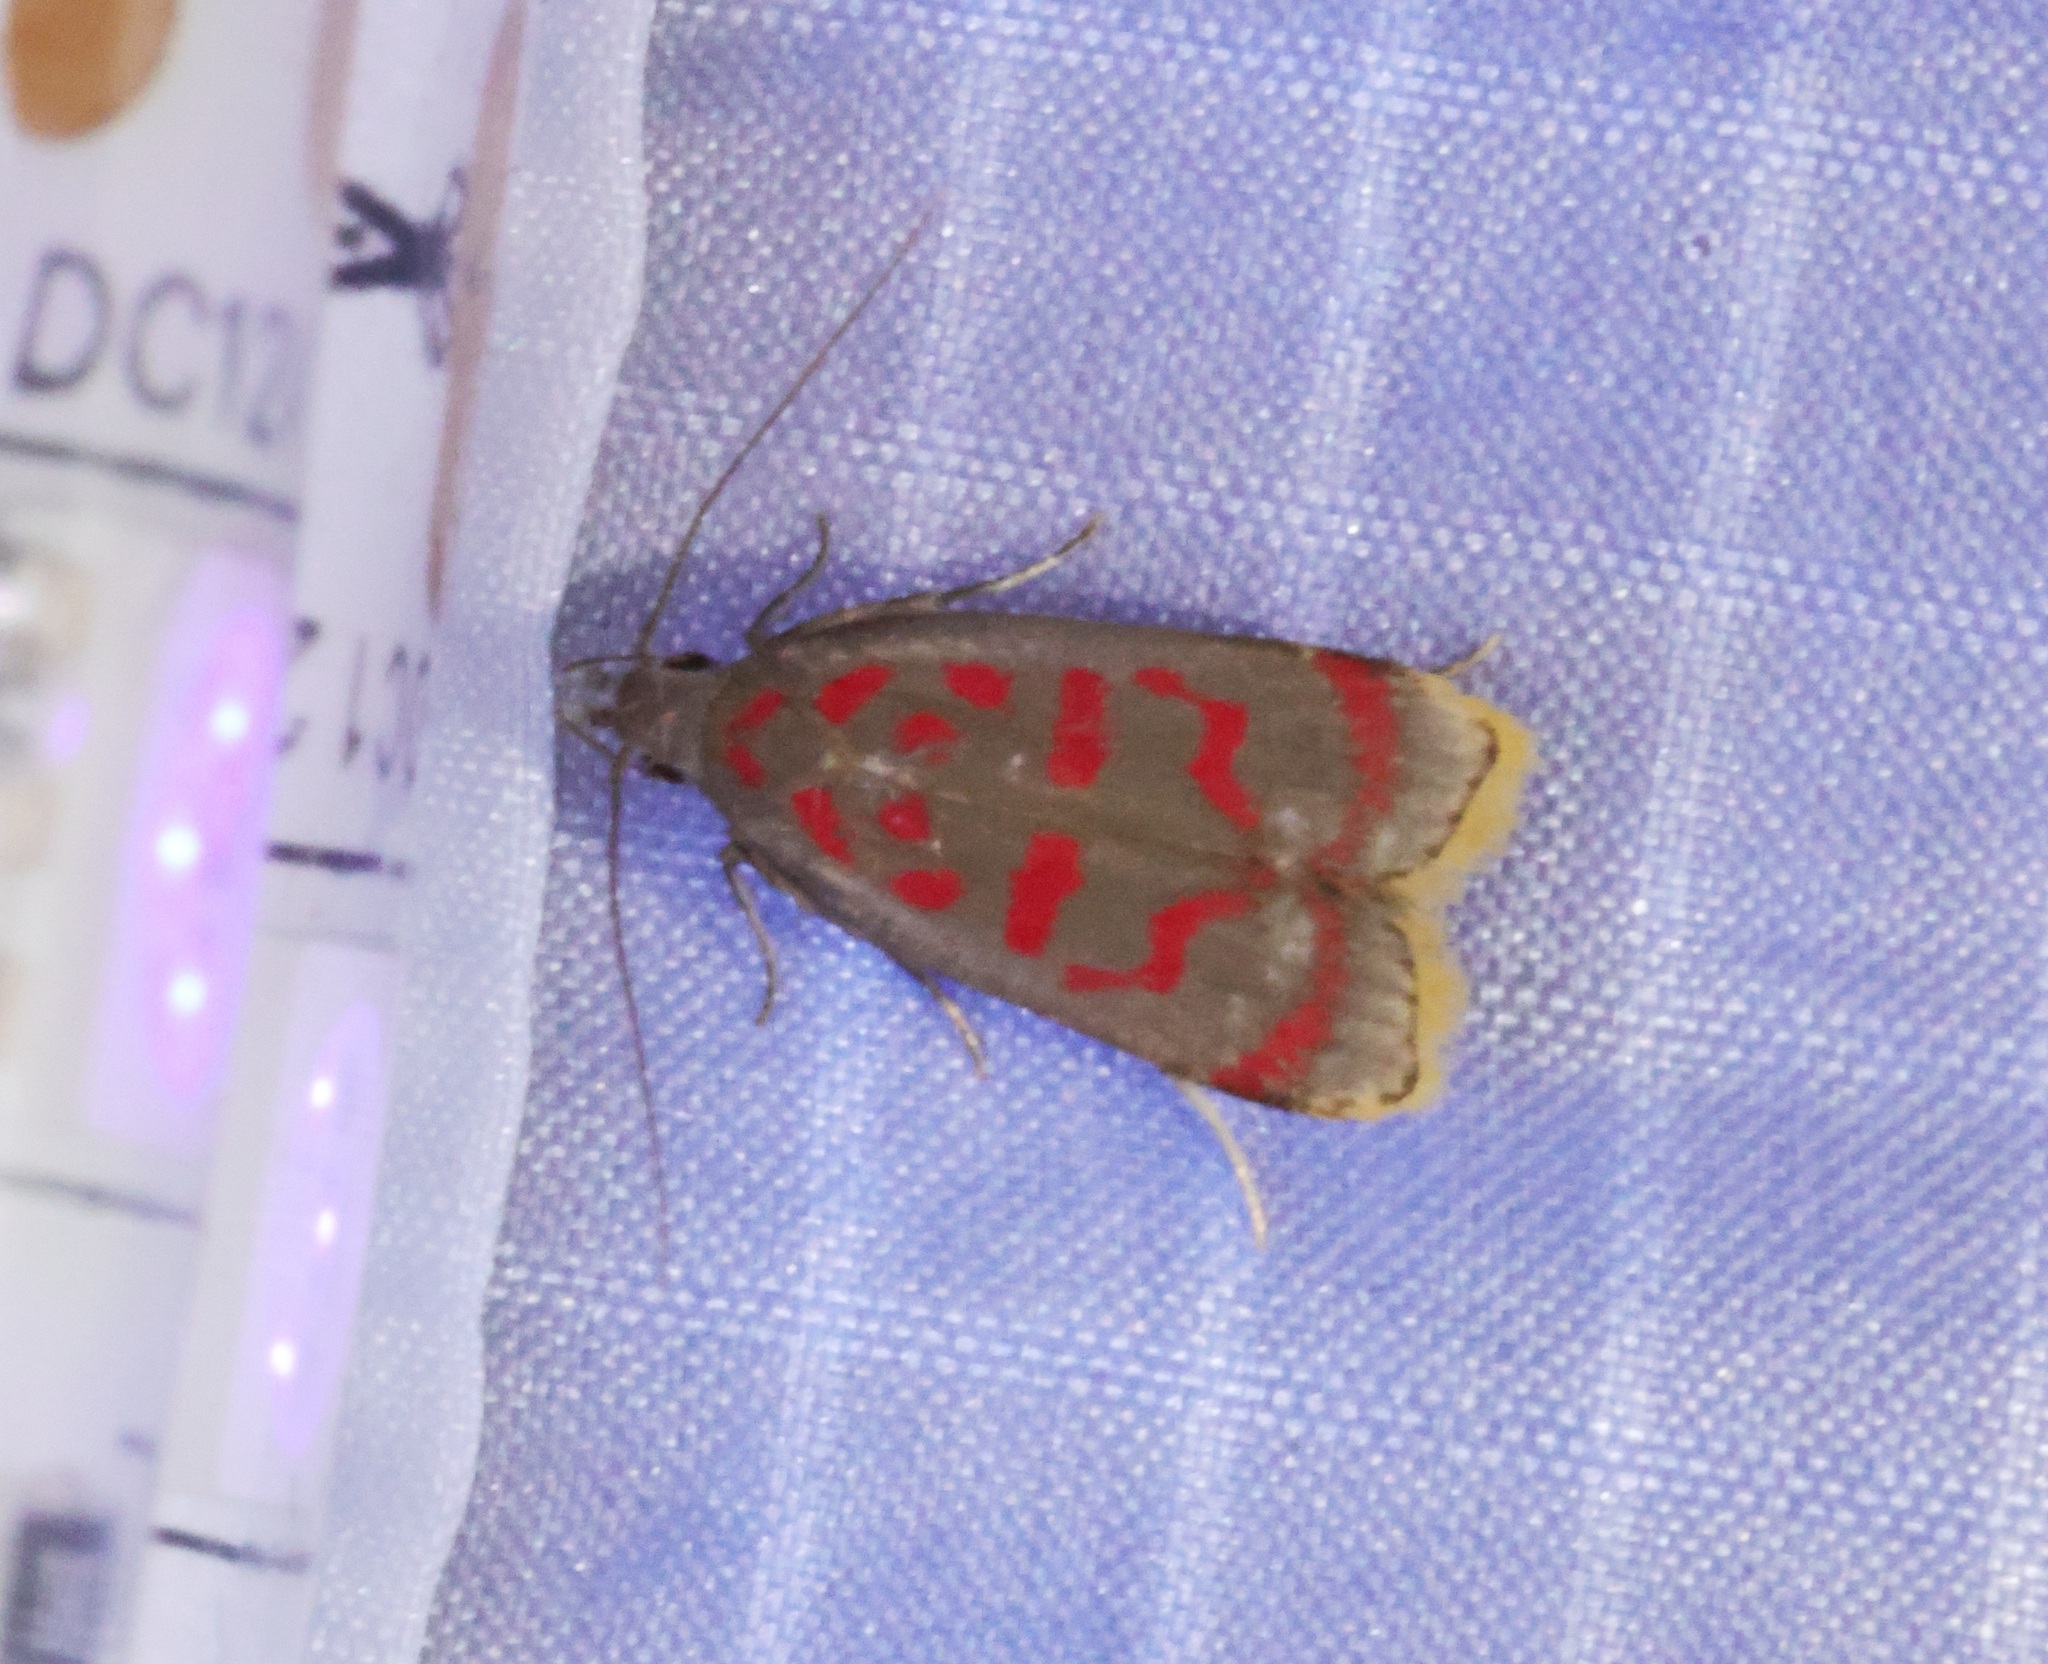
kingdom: Animalia
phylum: Arthropoda
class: Insecta
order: Lepidoptera
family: Gelechiidae
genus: Dichomeris
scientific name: Dichomeris sandycitis
